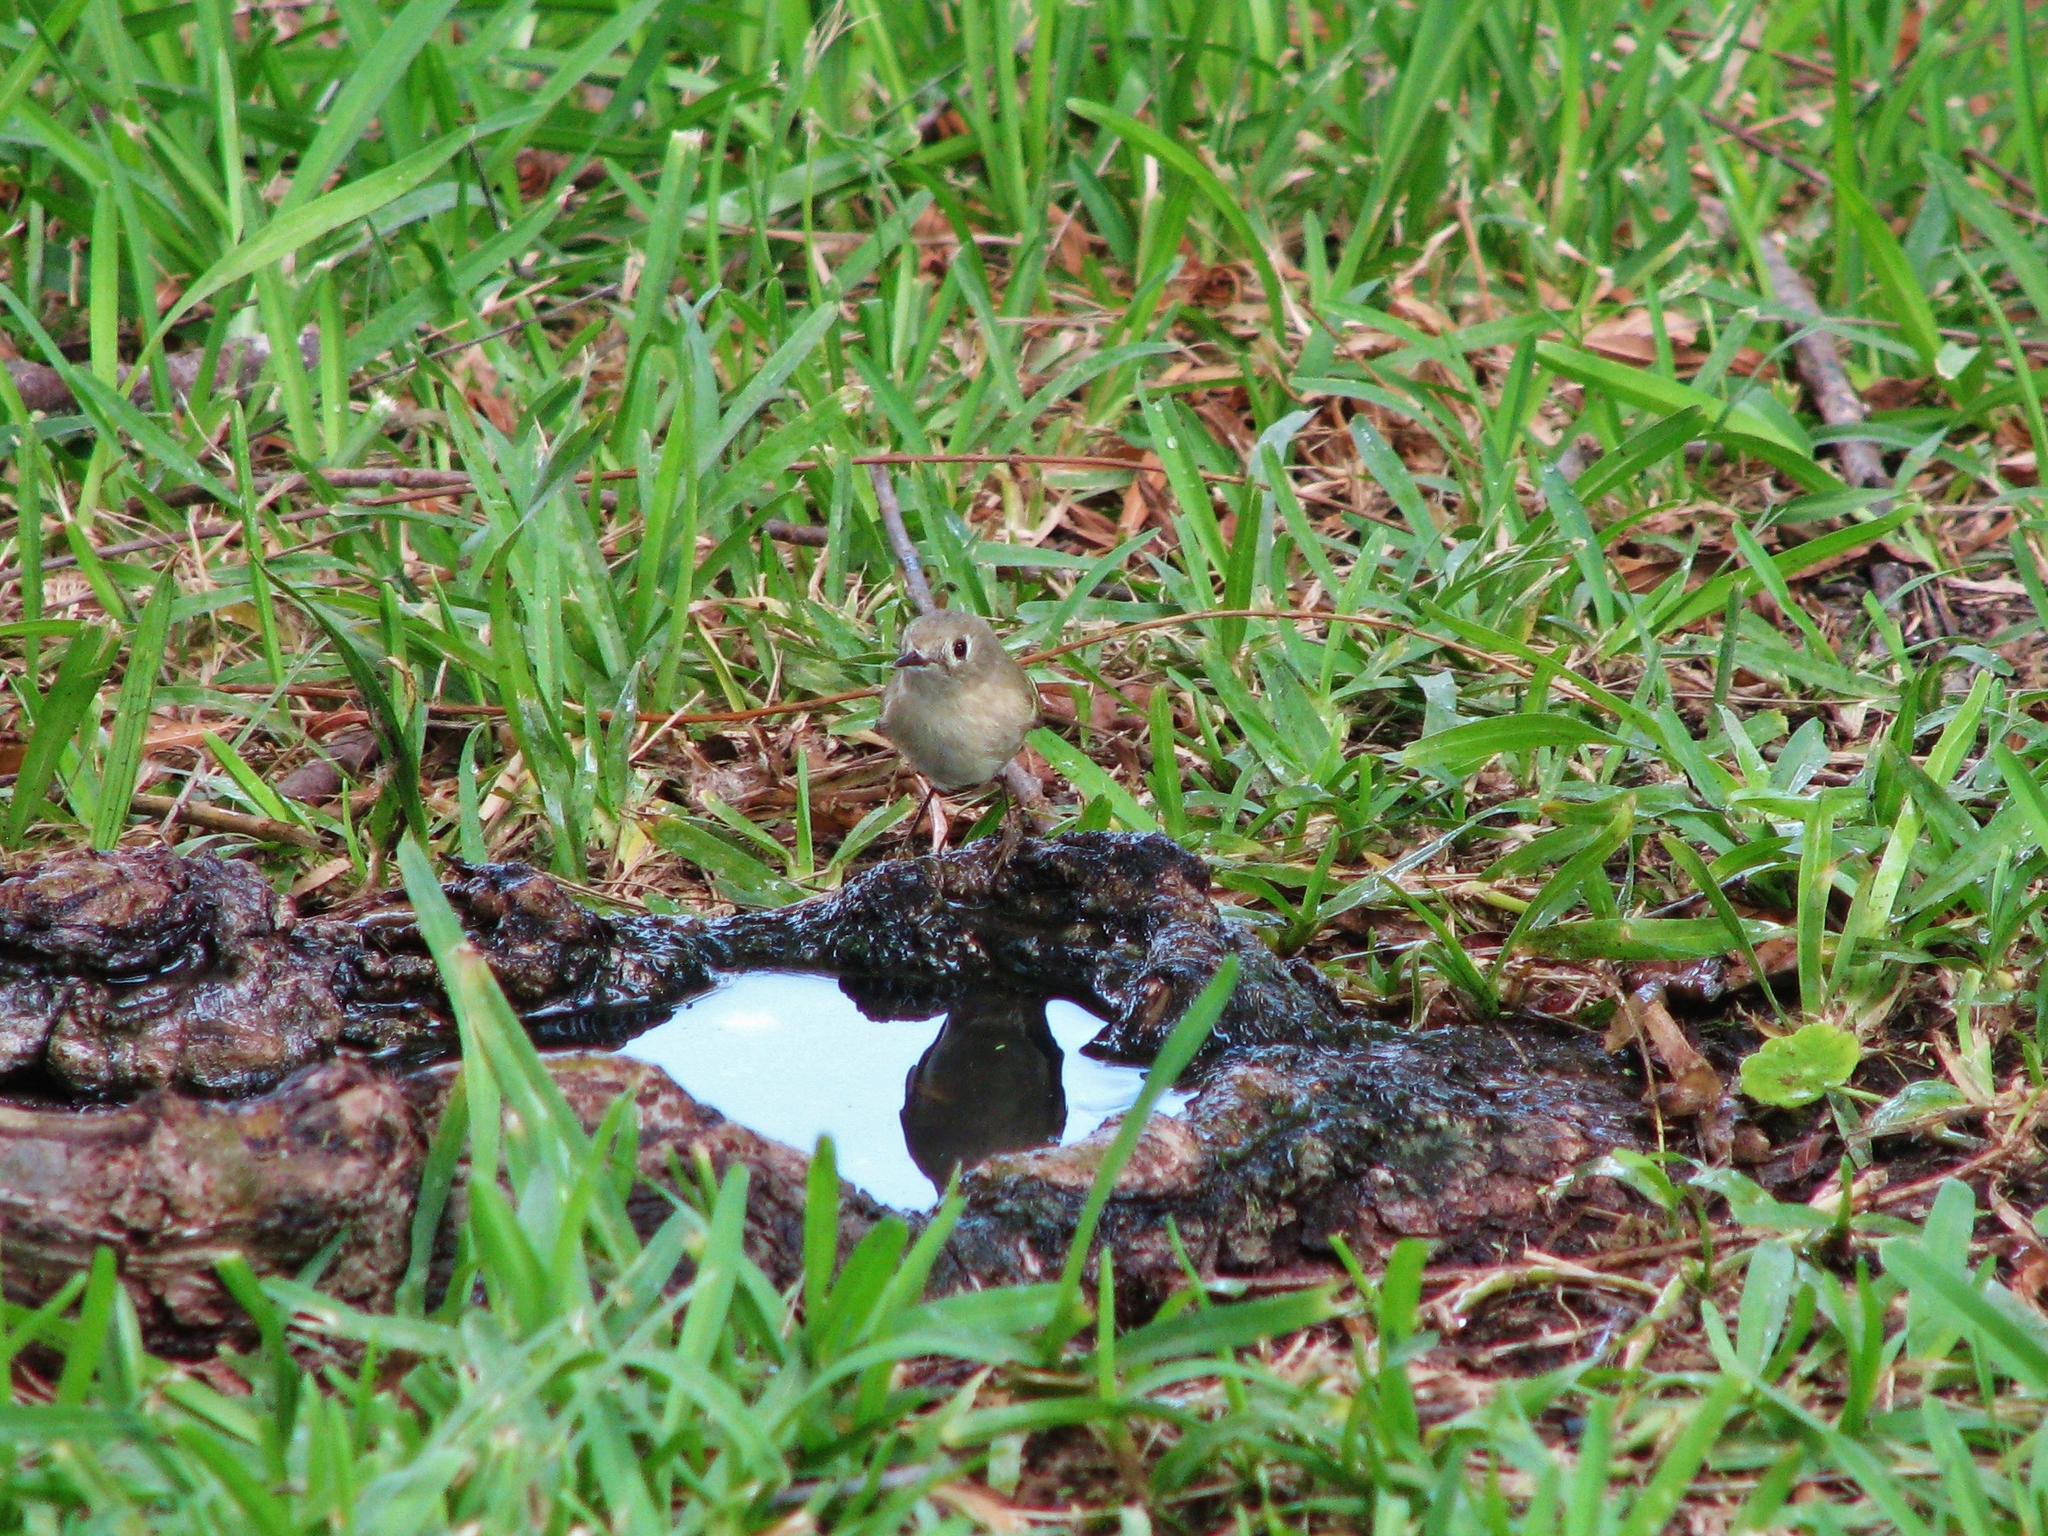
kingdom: Animalia
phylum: Chordata
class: Aves
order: Passeriformes
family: Regulidae
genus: Regulus
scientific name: Regulus calendula
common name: Ruby-crowned kinglet
